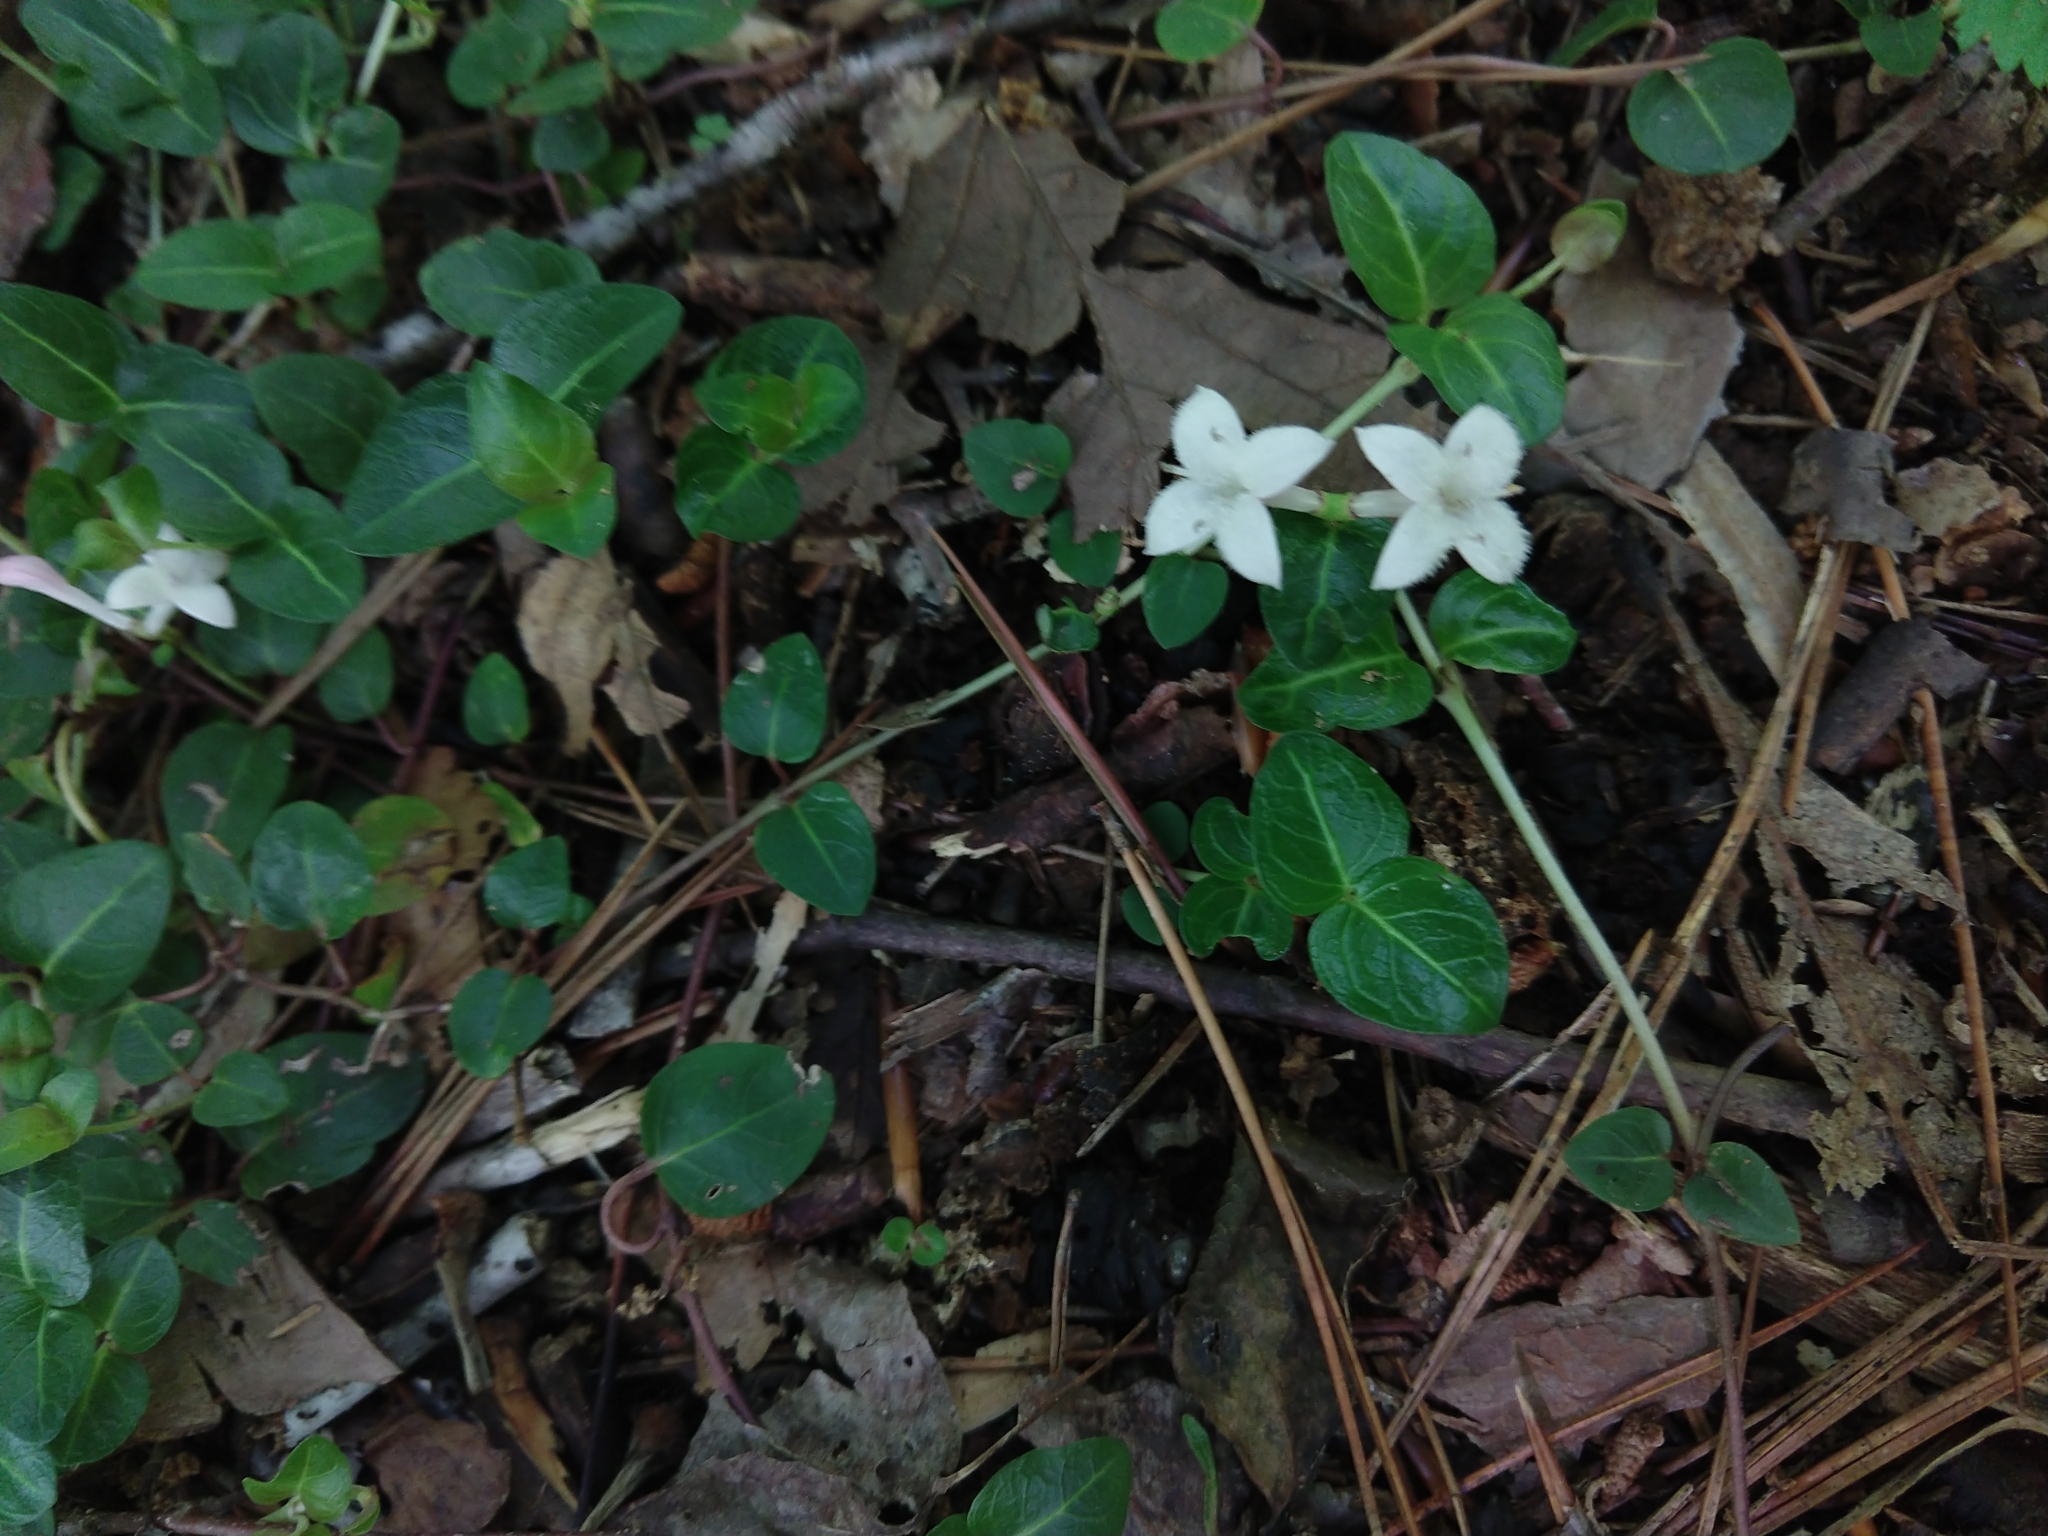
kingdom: Plantae
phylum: Tracheophyta
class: Magnoliopsida
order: Gentianales
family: Rubiaceae
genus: Mitchella
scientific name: Mitchella repens
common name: Partridge-berry
